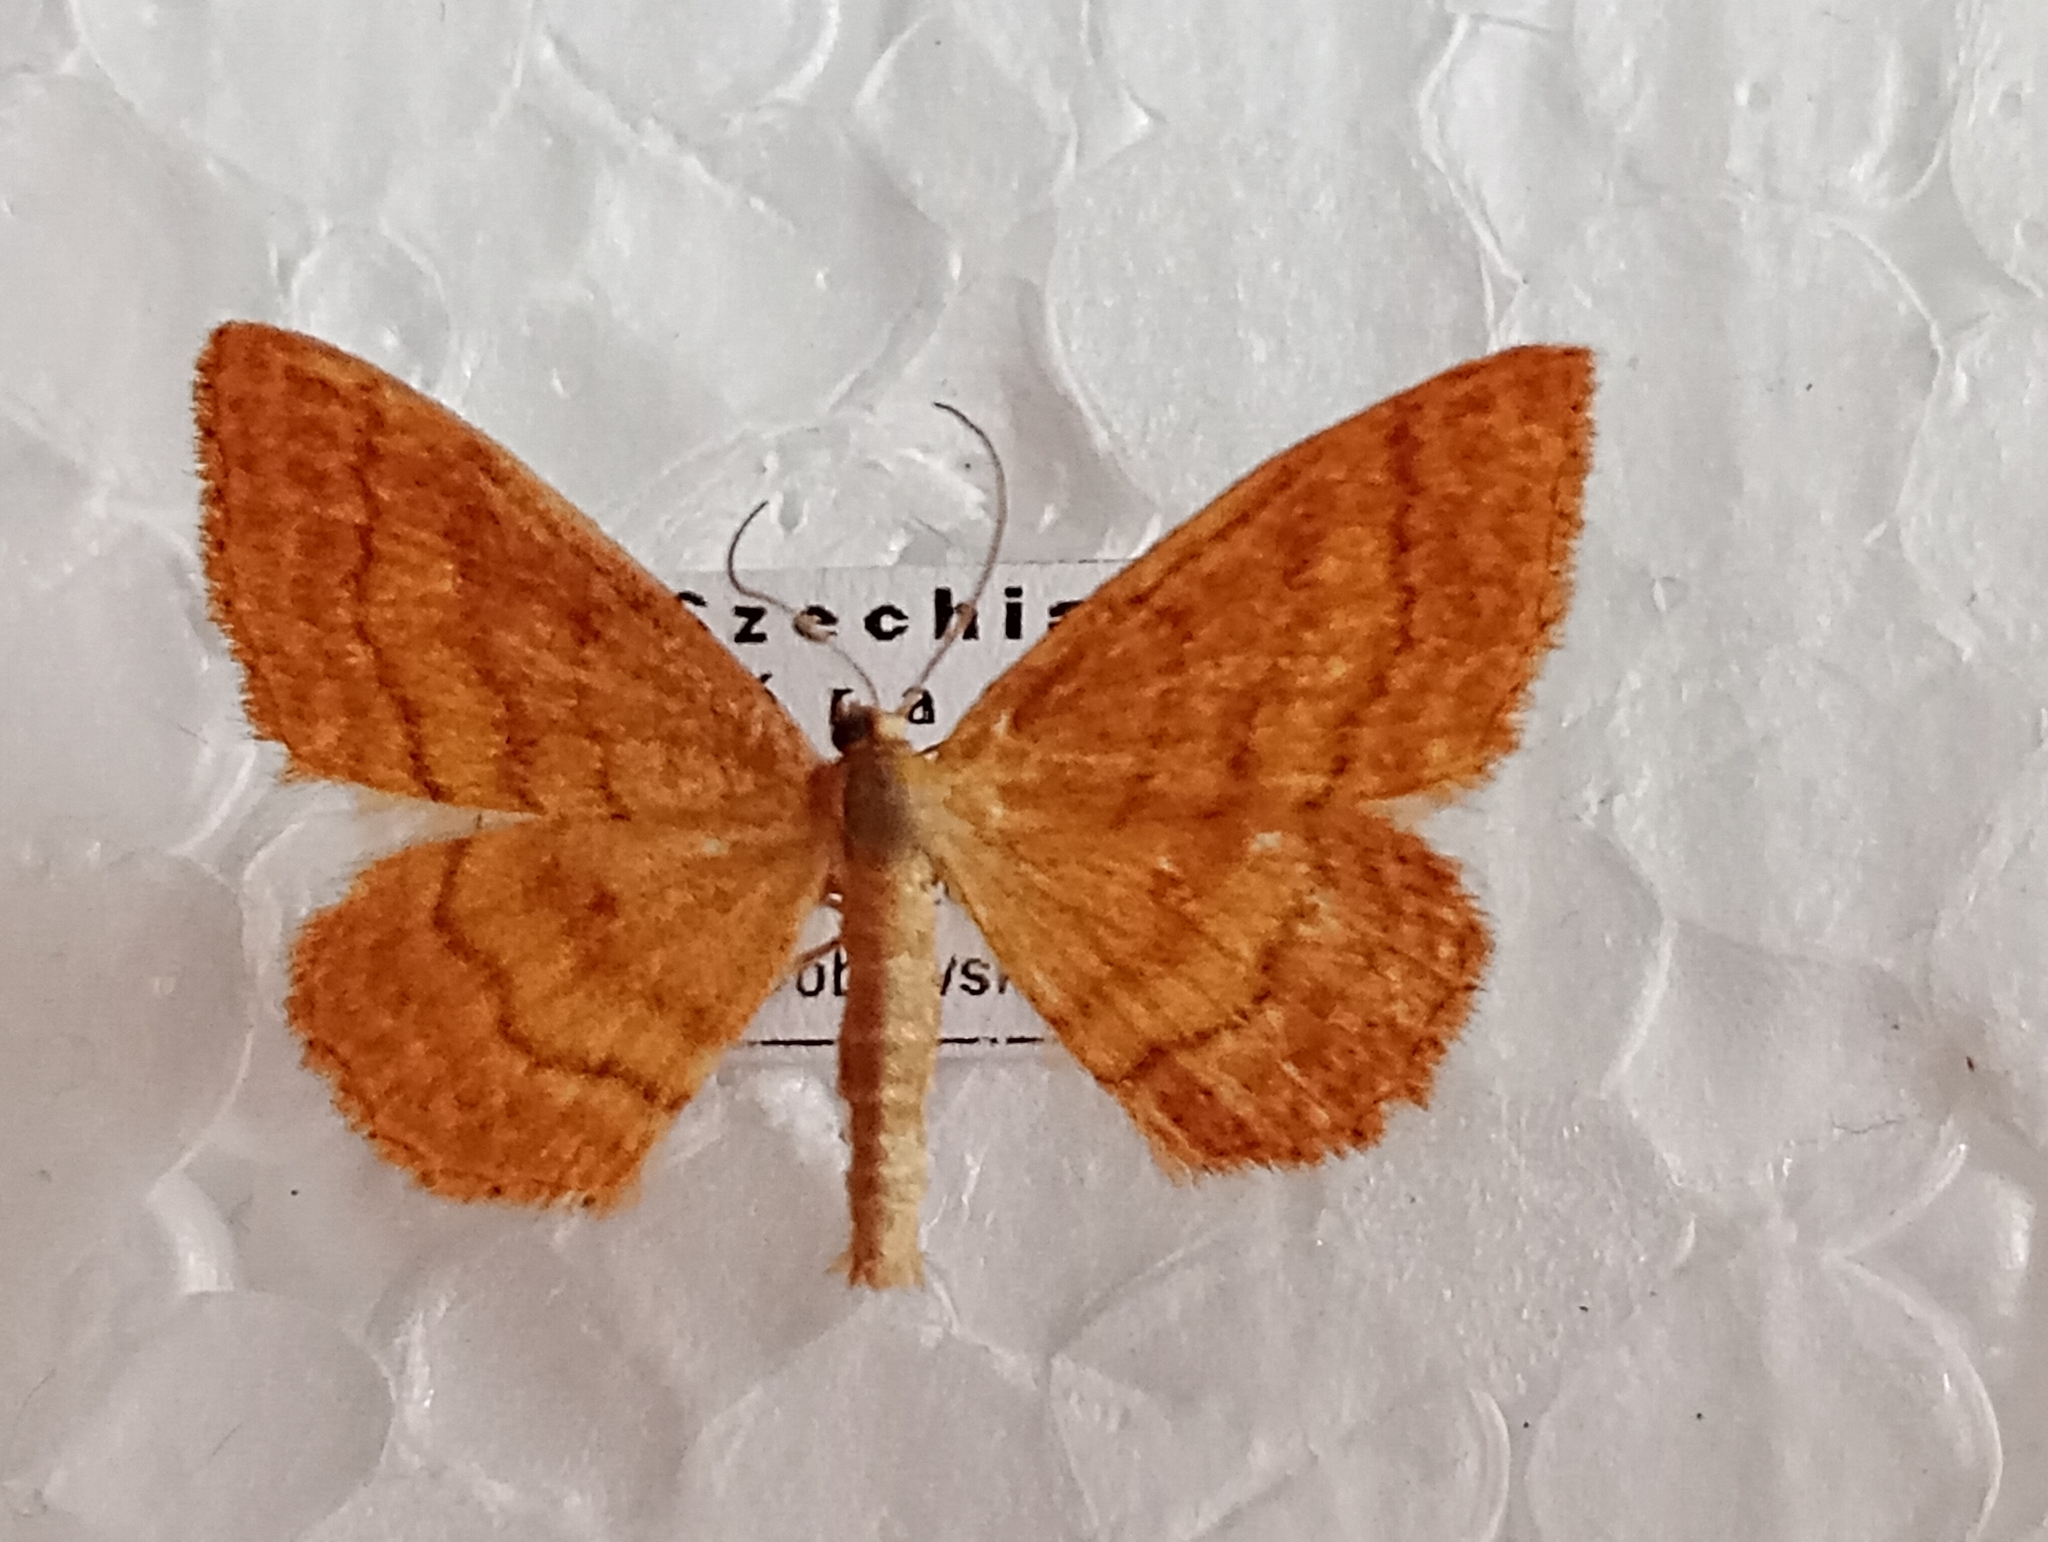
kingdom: Animalia
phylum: Arthropoda
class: Insecta
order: Lepidoptera
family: Geometridae
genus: Idaea
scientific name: Idaea ochrata
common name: Bright wave
